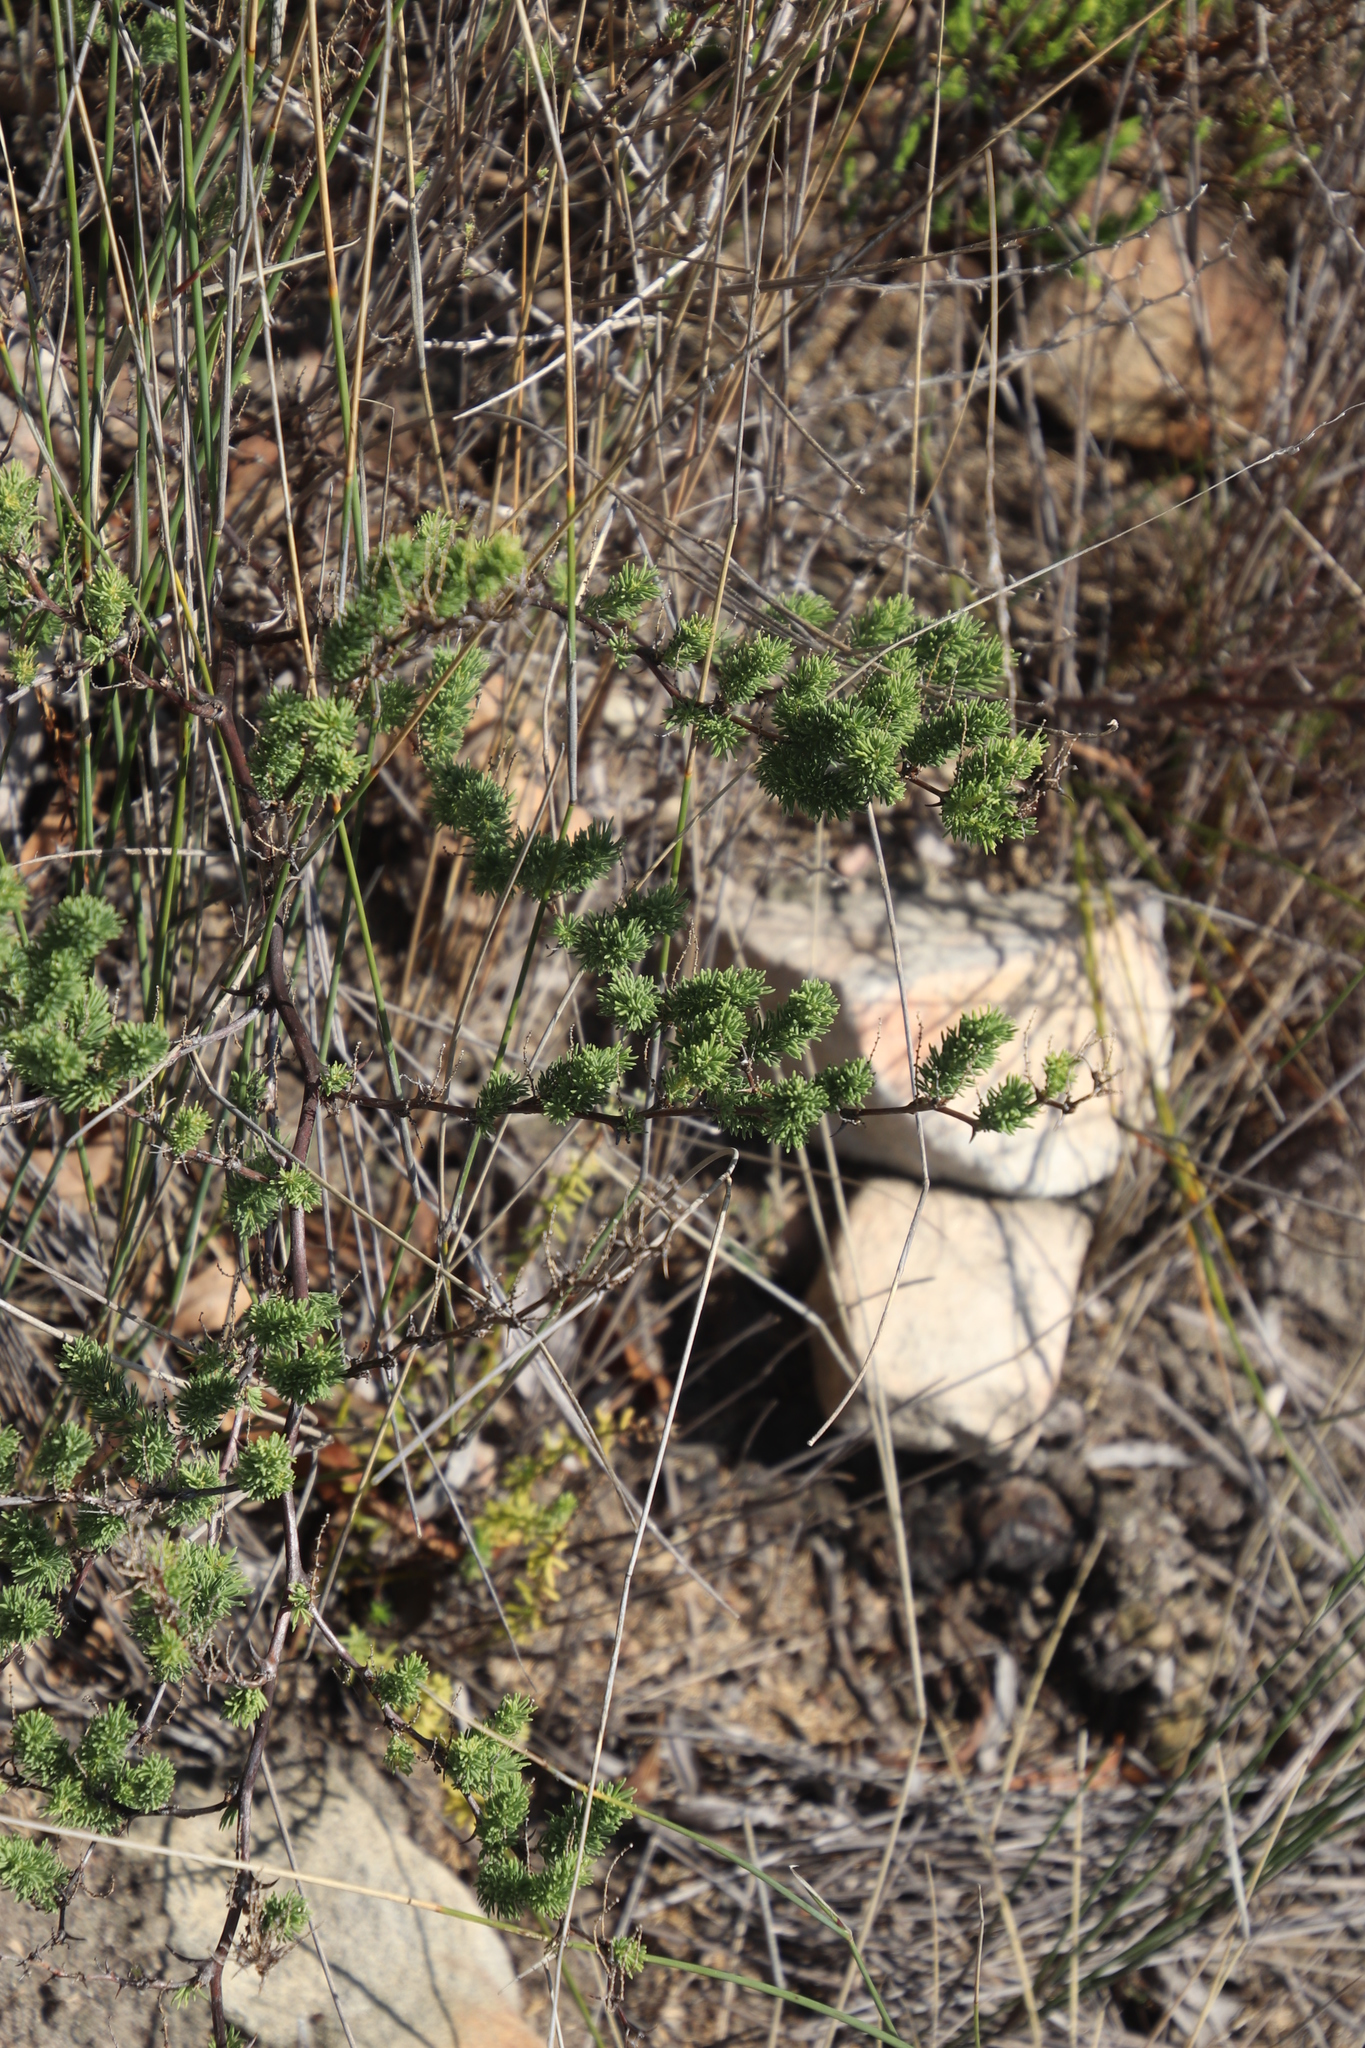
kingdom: Plantae
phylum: Tracheophyta
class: Liliopsida
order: Asparagales
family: Asparagaceae
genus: Asparagus
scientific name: Asparagus rubicundus
